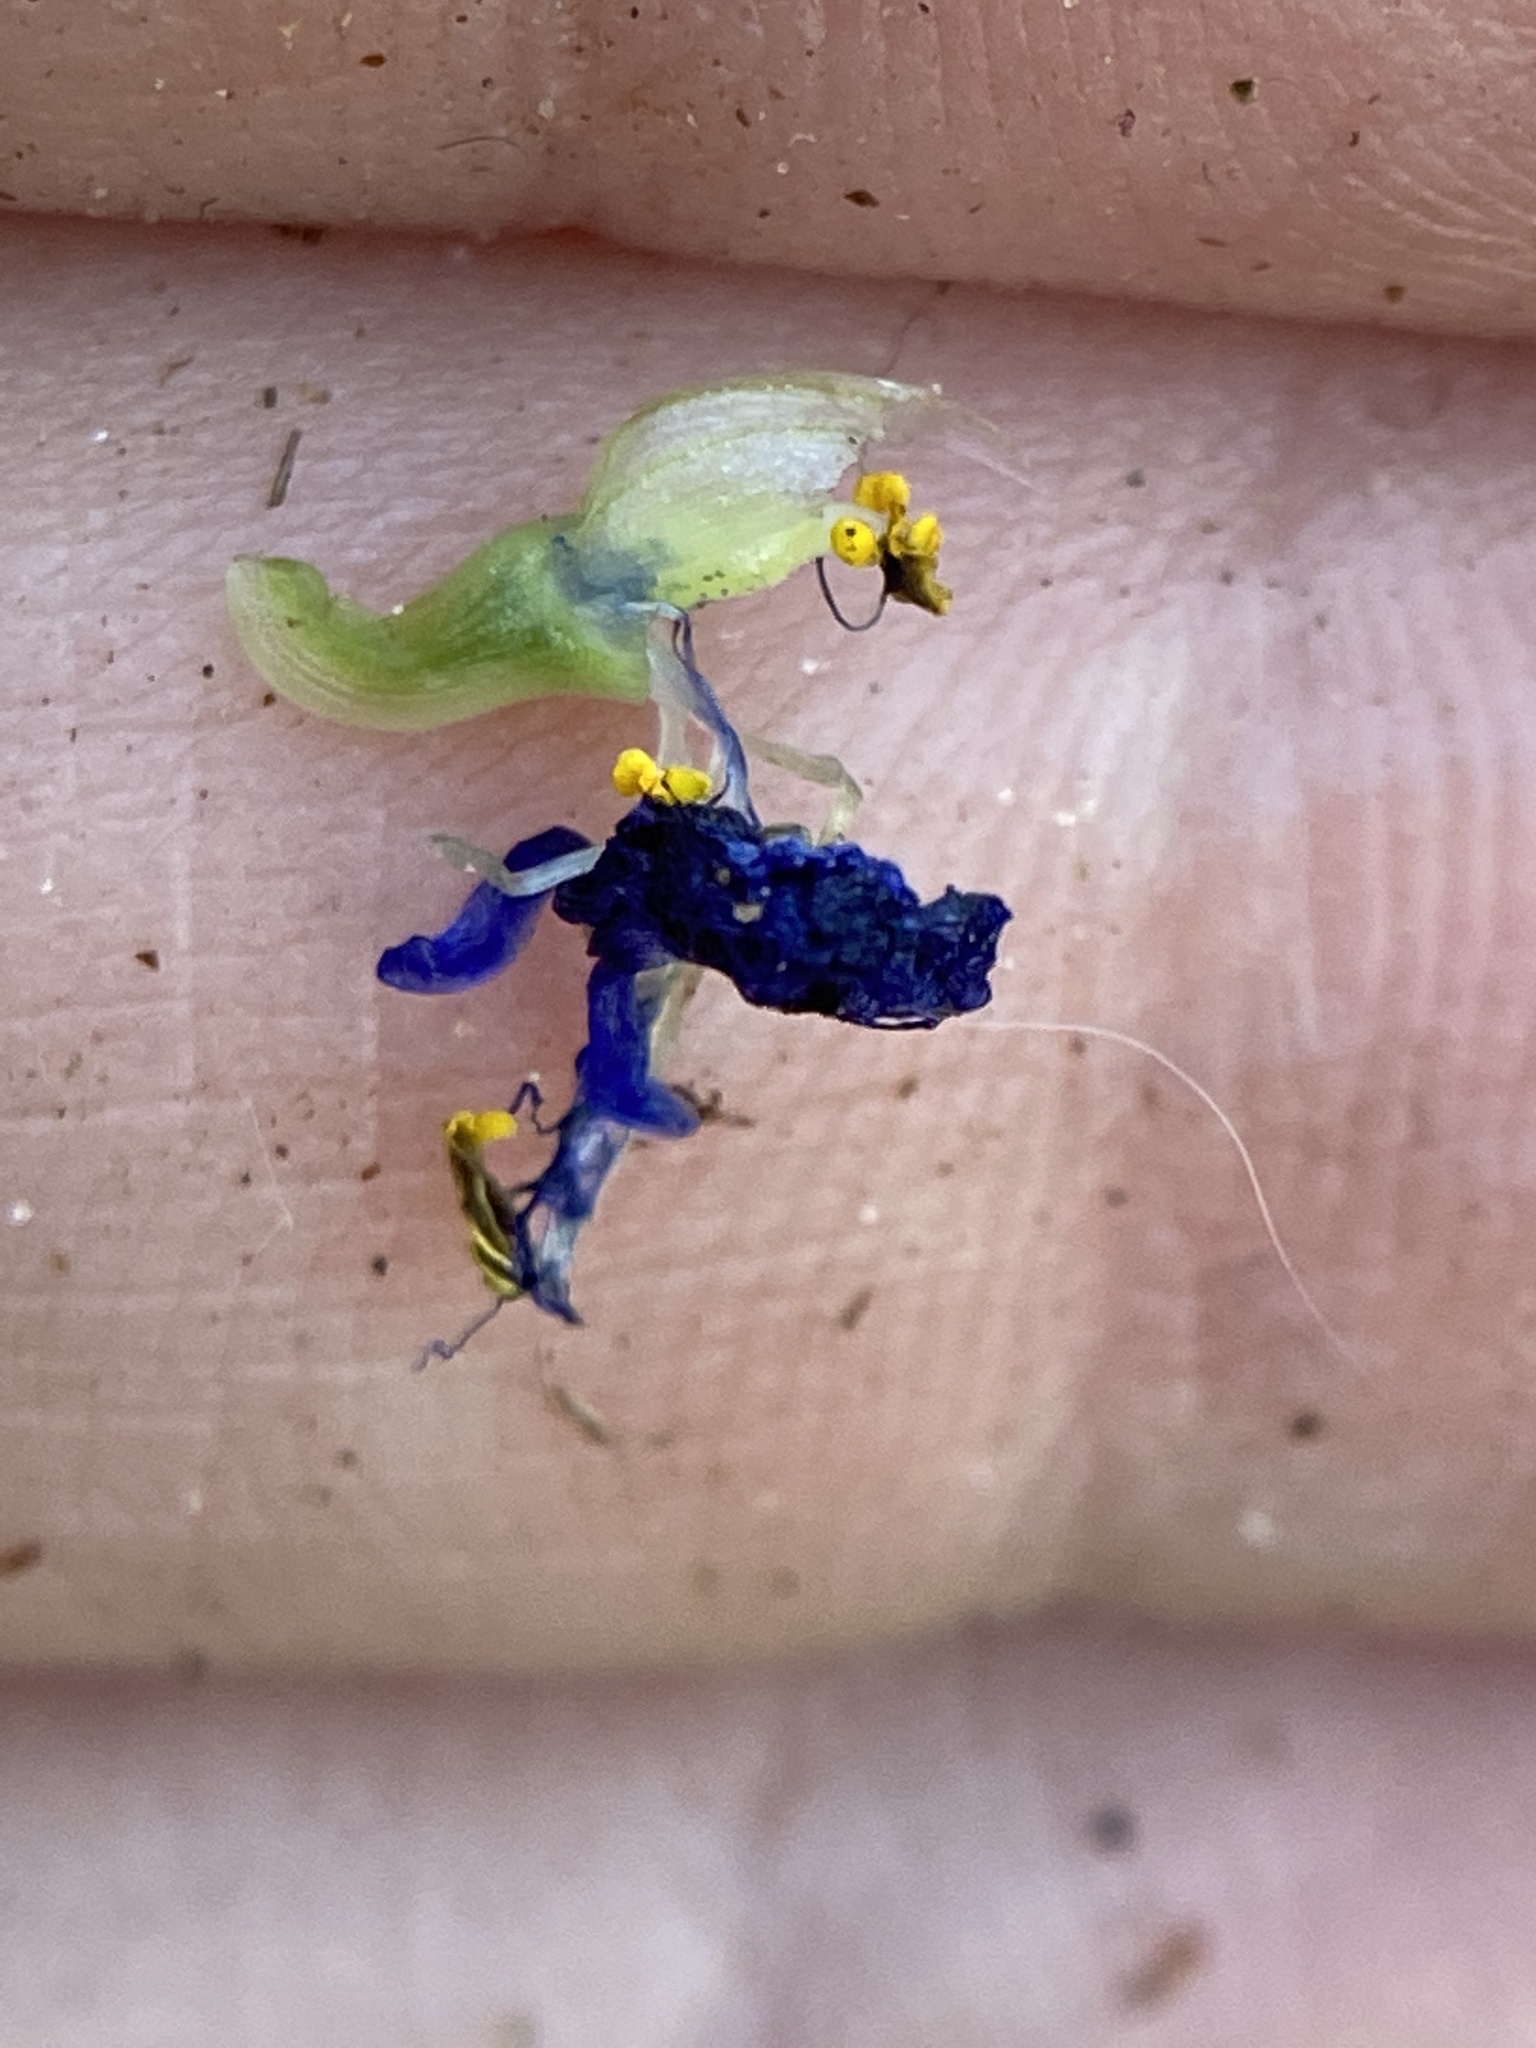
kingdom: Plantae
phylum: Tracheophyta
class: Liliopsida
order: Commelinales
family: Commelinaceae
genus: Commelina
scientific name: Commelina communis
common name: Asiatic dayflower
